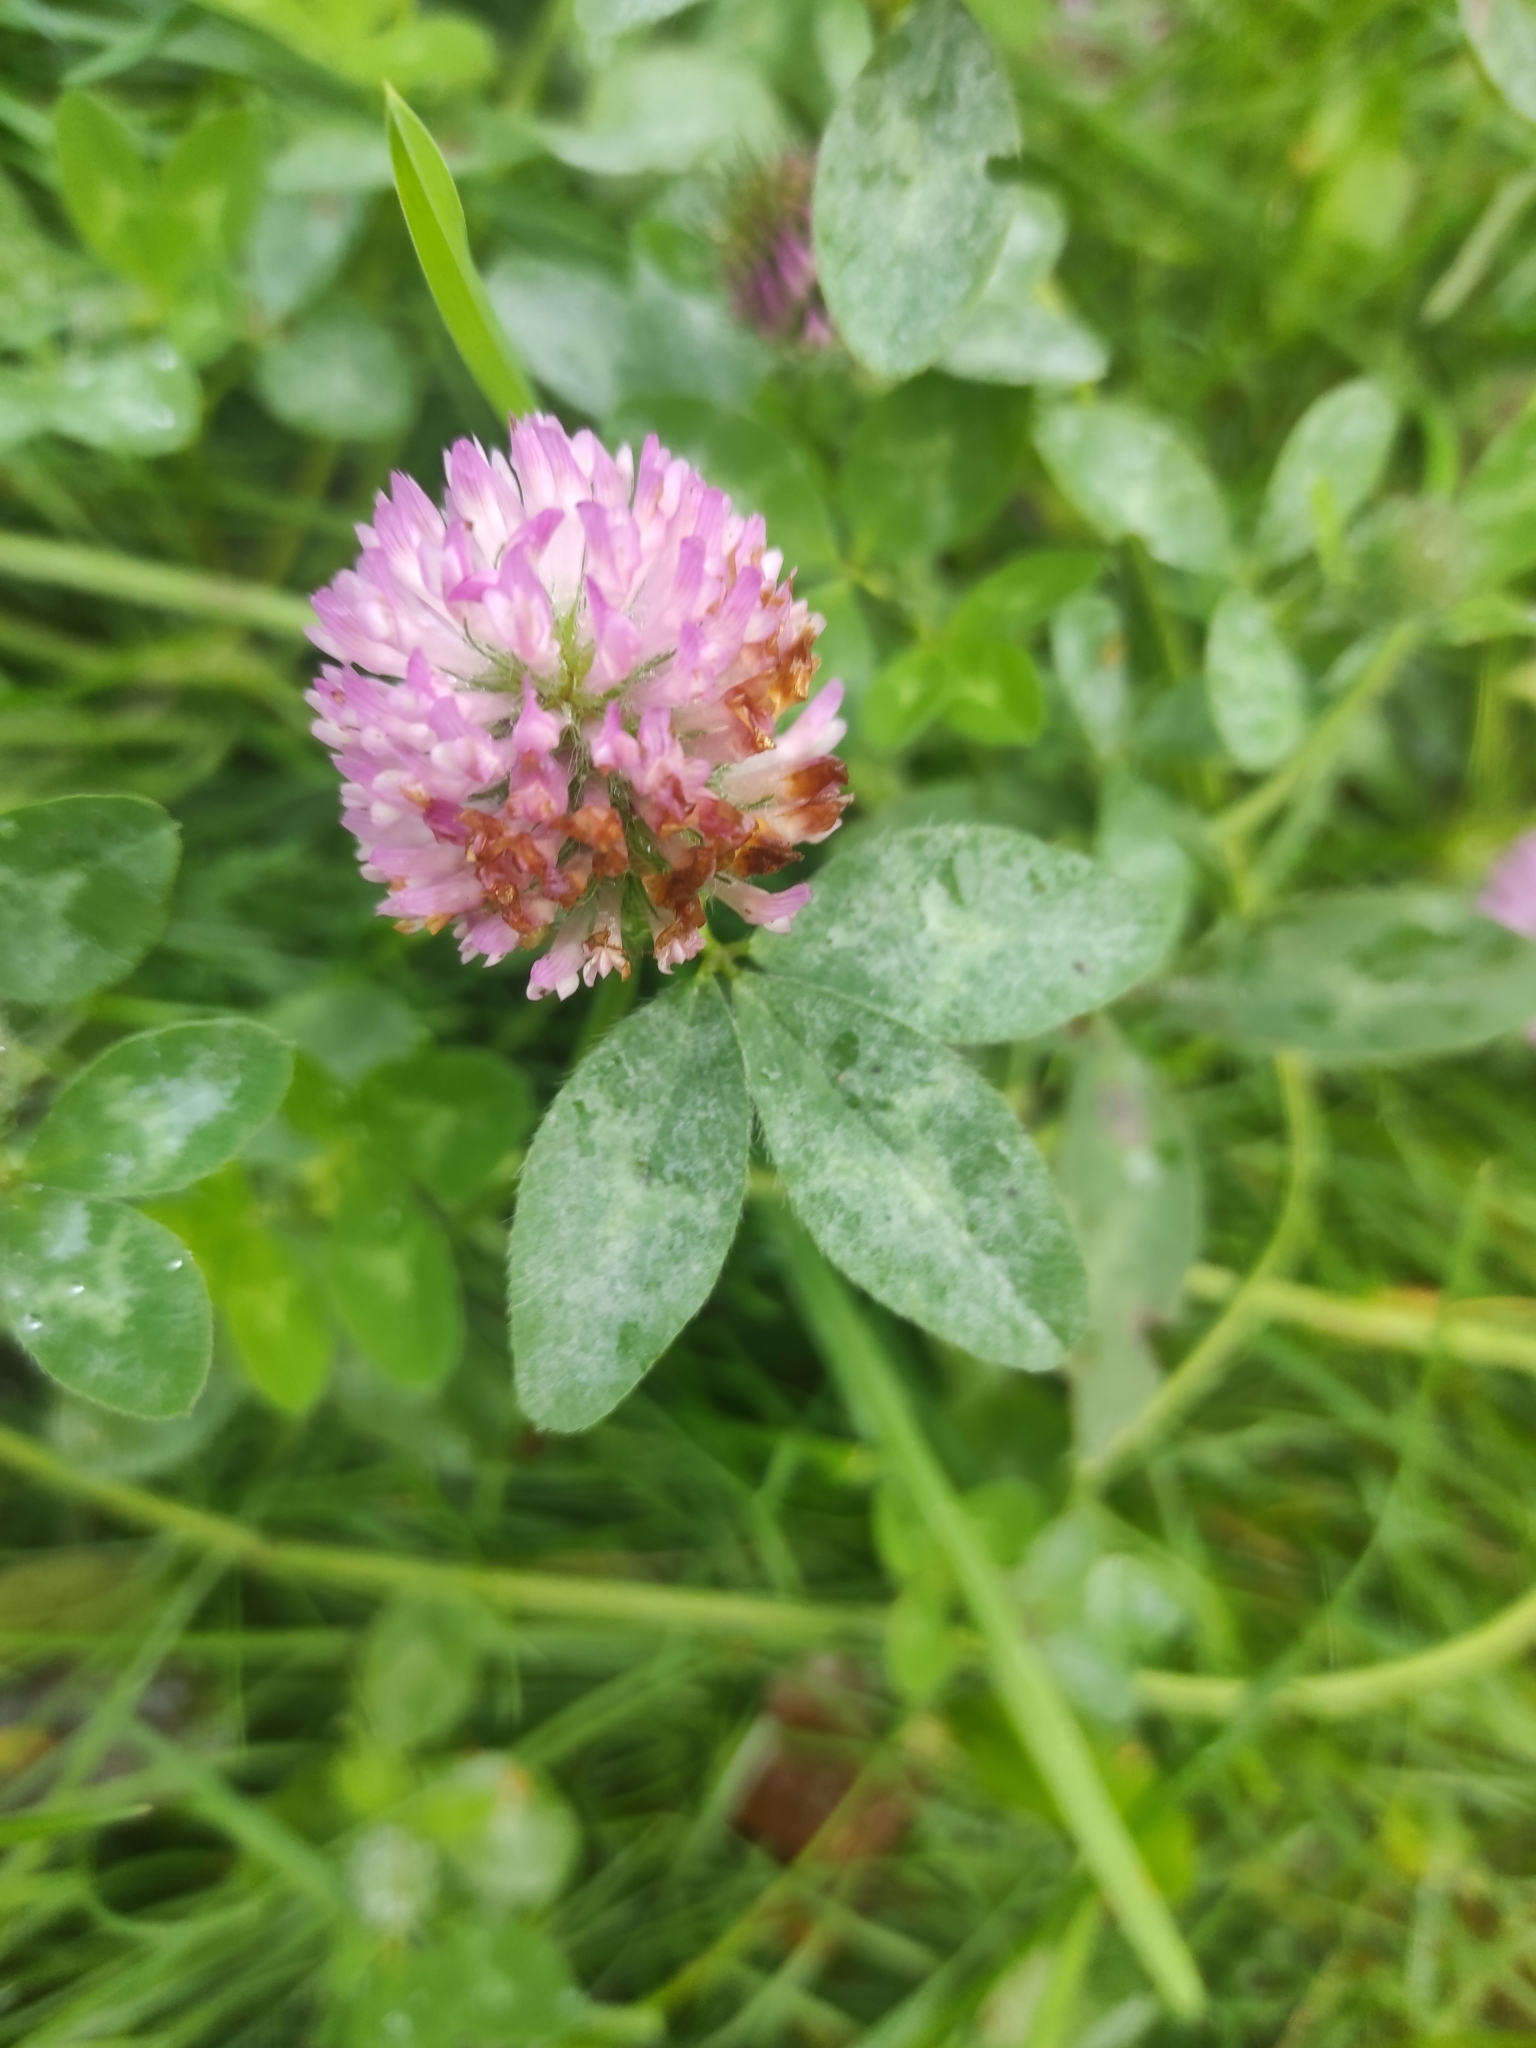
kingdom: Plantae
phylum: Tracheophyta
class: Magnoliopsida
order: Fabales
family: Fabaceae
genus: Trifolium
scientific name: Trifolium pratense
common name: Red clover
